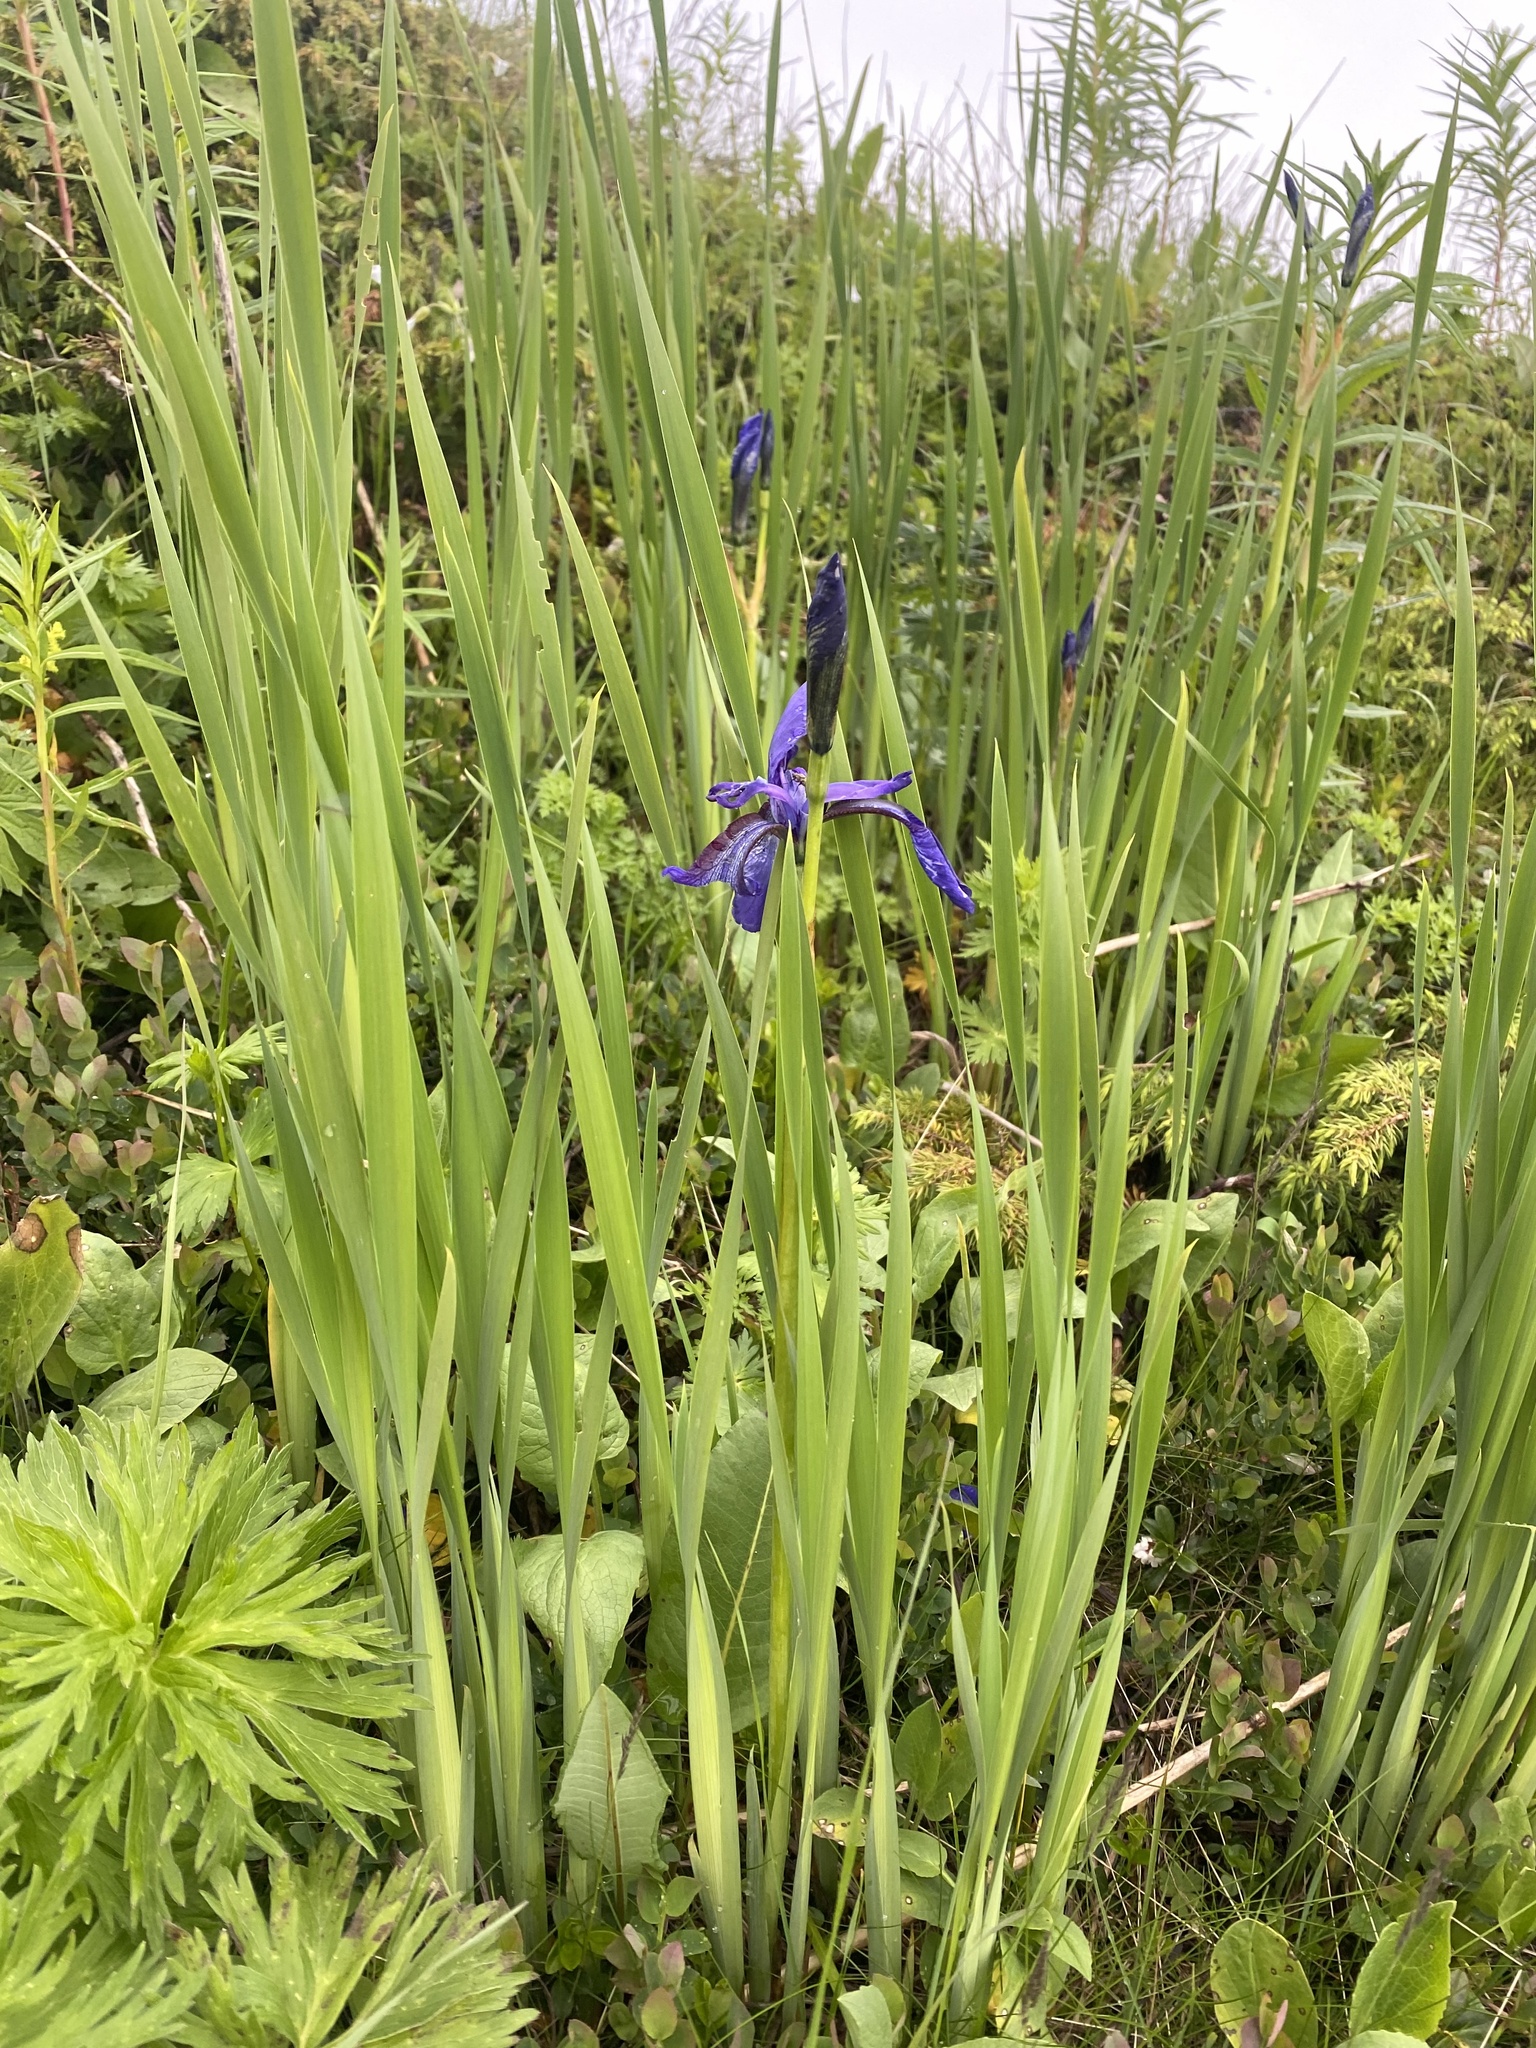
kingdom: Plantae
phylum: Tracheophyta
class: Liliopsida
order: Asparagales
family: Iridaceae
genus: Iris
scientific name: Iris sibirica
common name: Siberian iris
